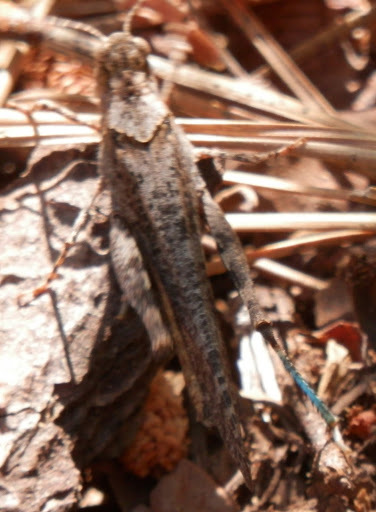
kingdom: Animalia
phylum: Arthropoda
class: Insecta
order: Orthoptera
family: Acrididae
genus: Trimerotropis
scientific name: Trimerotropis verruculata
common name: Crackling forest grasshopper
